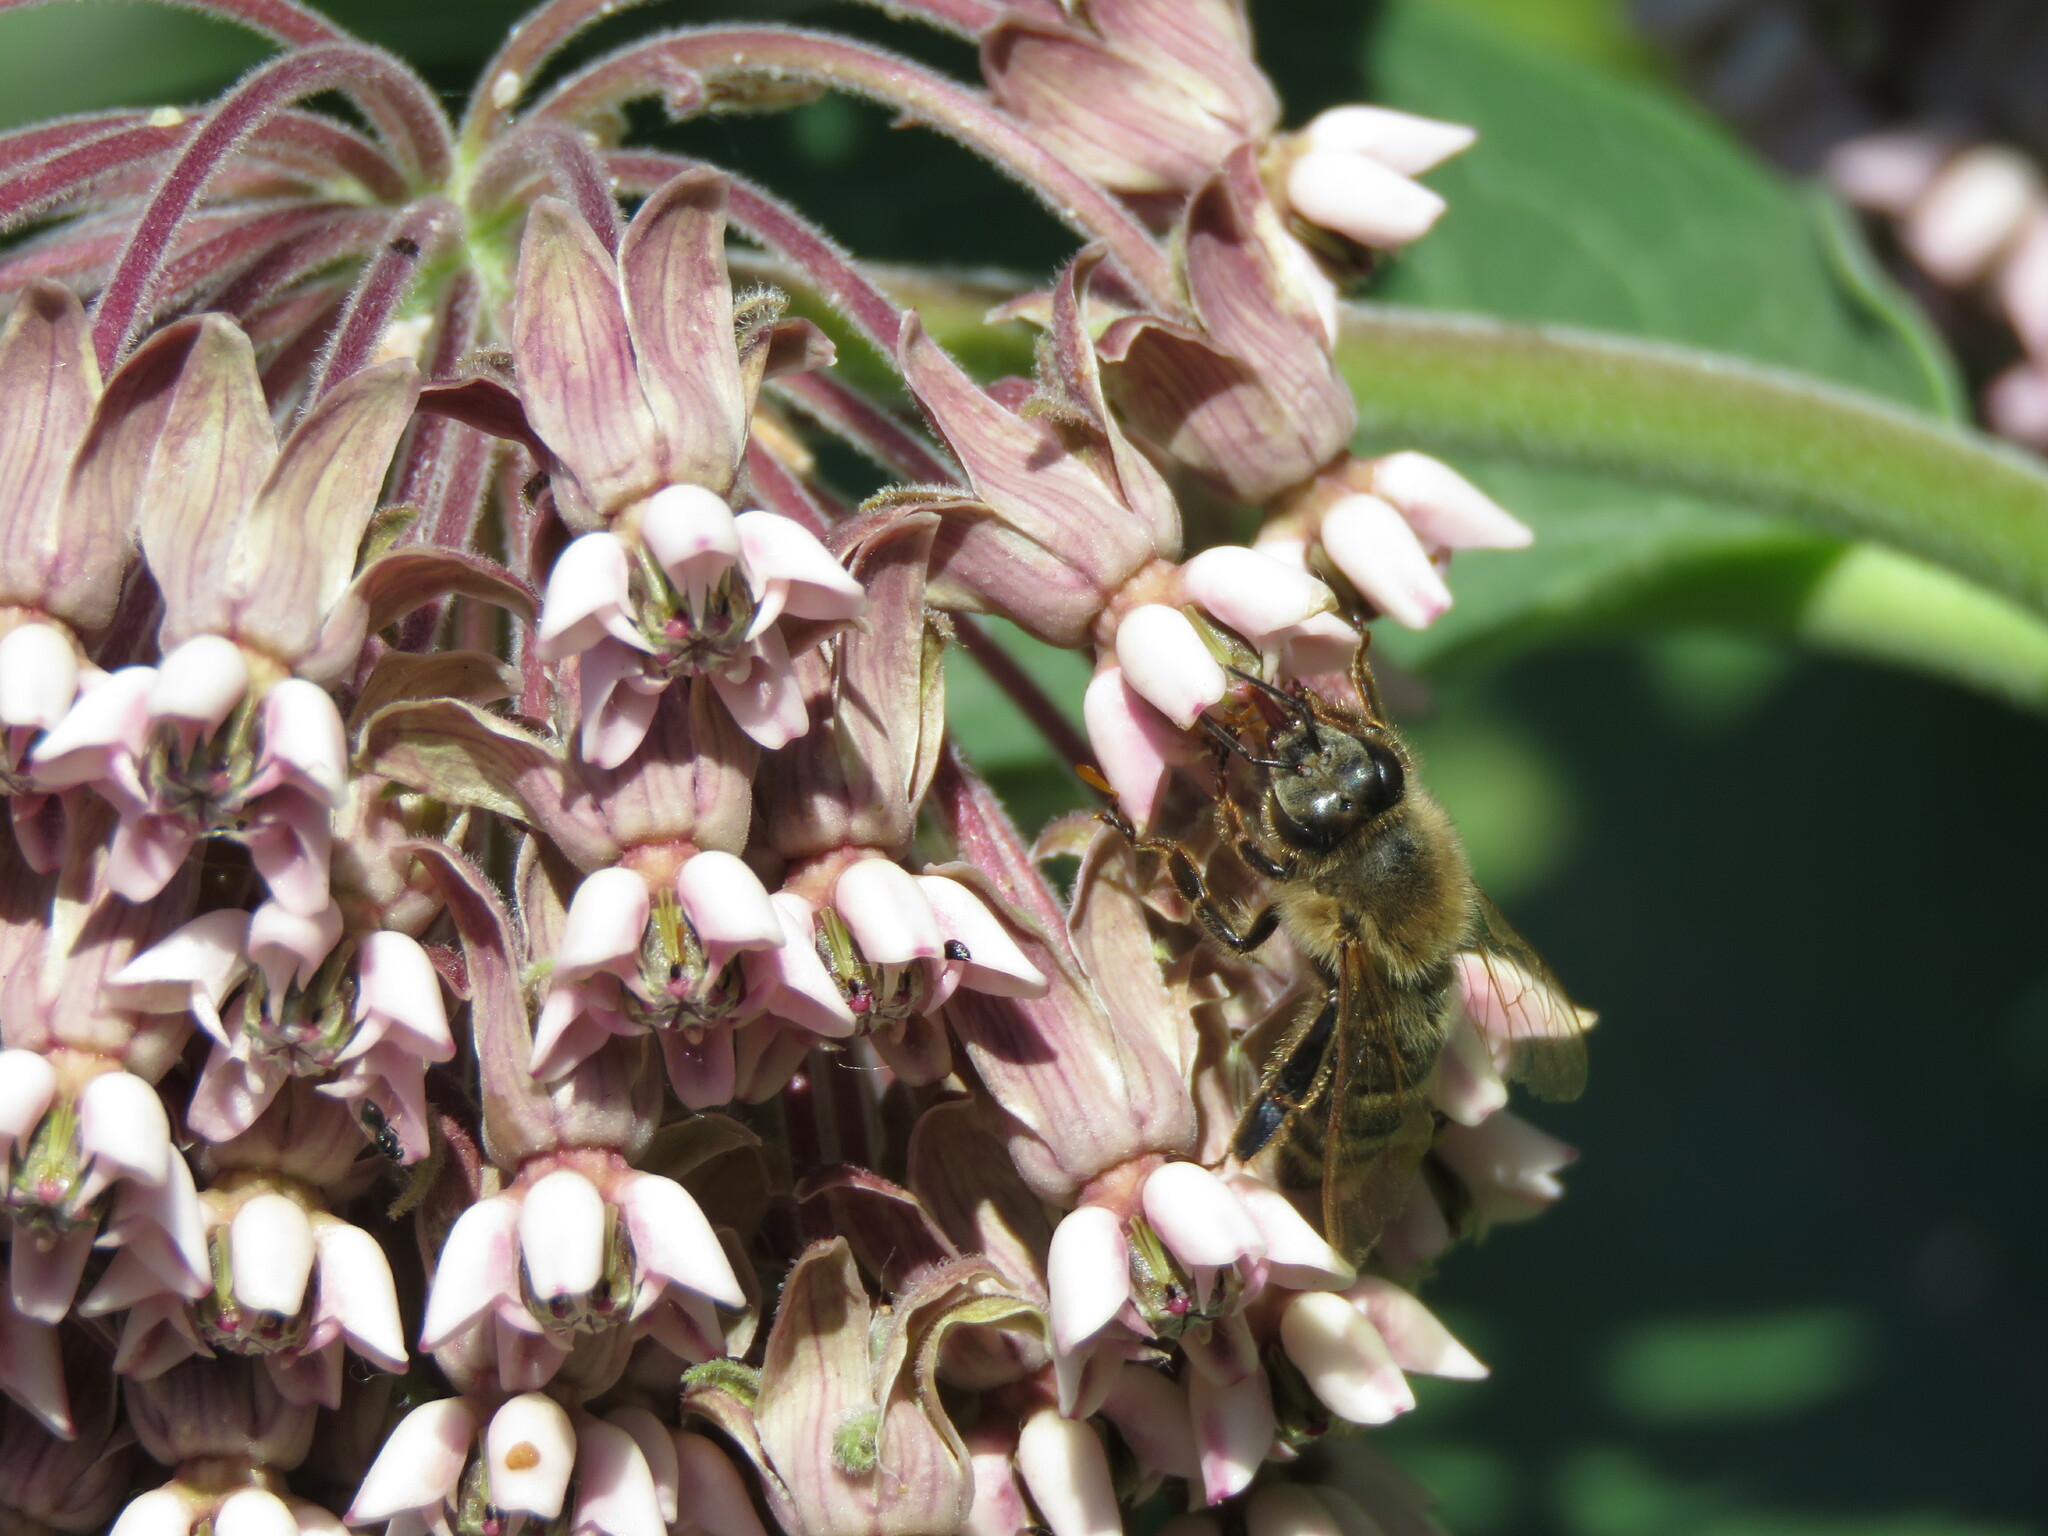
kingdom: Animalia
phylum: Arthropoda
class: Insecta
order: Hymenoptera
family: Apidae
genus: Apis
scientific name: Apis mellifera
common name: Honey bee
